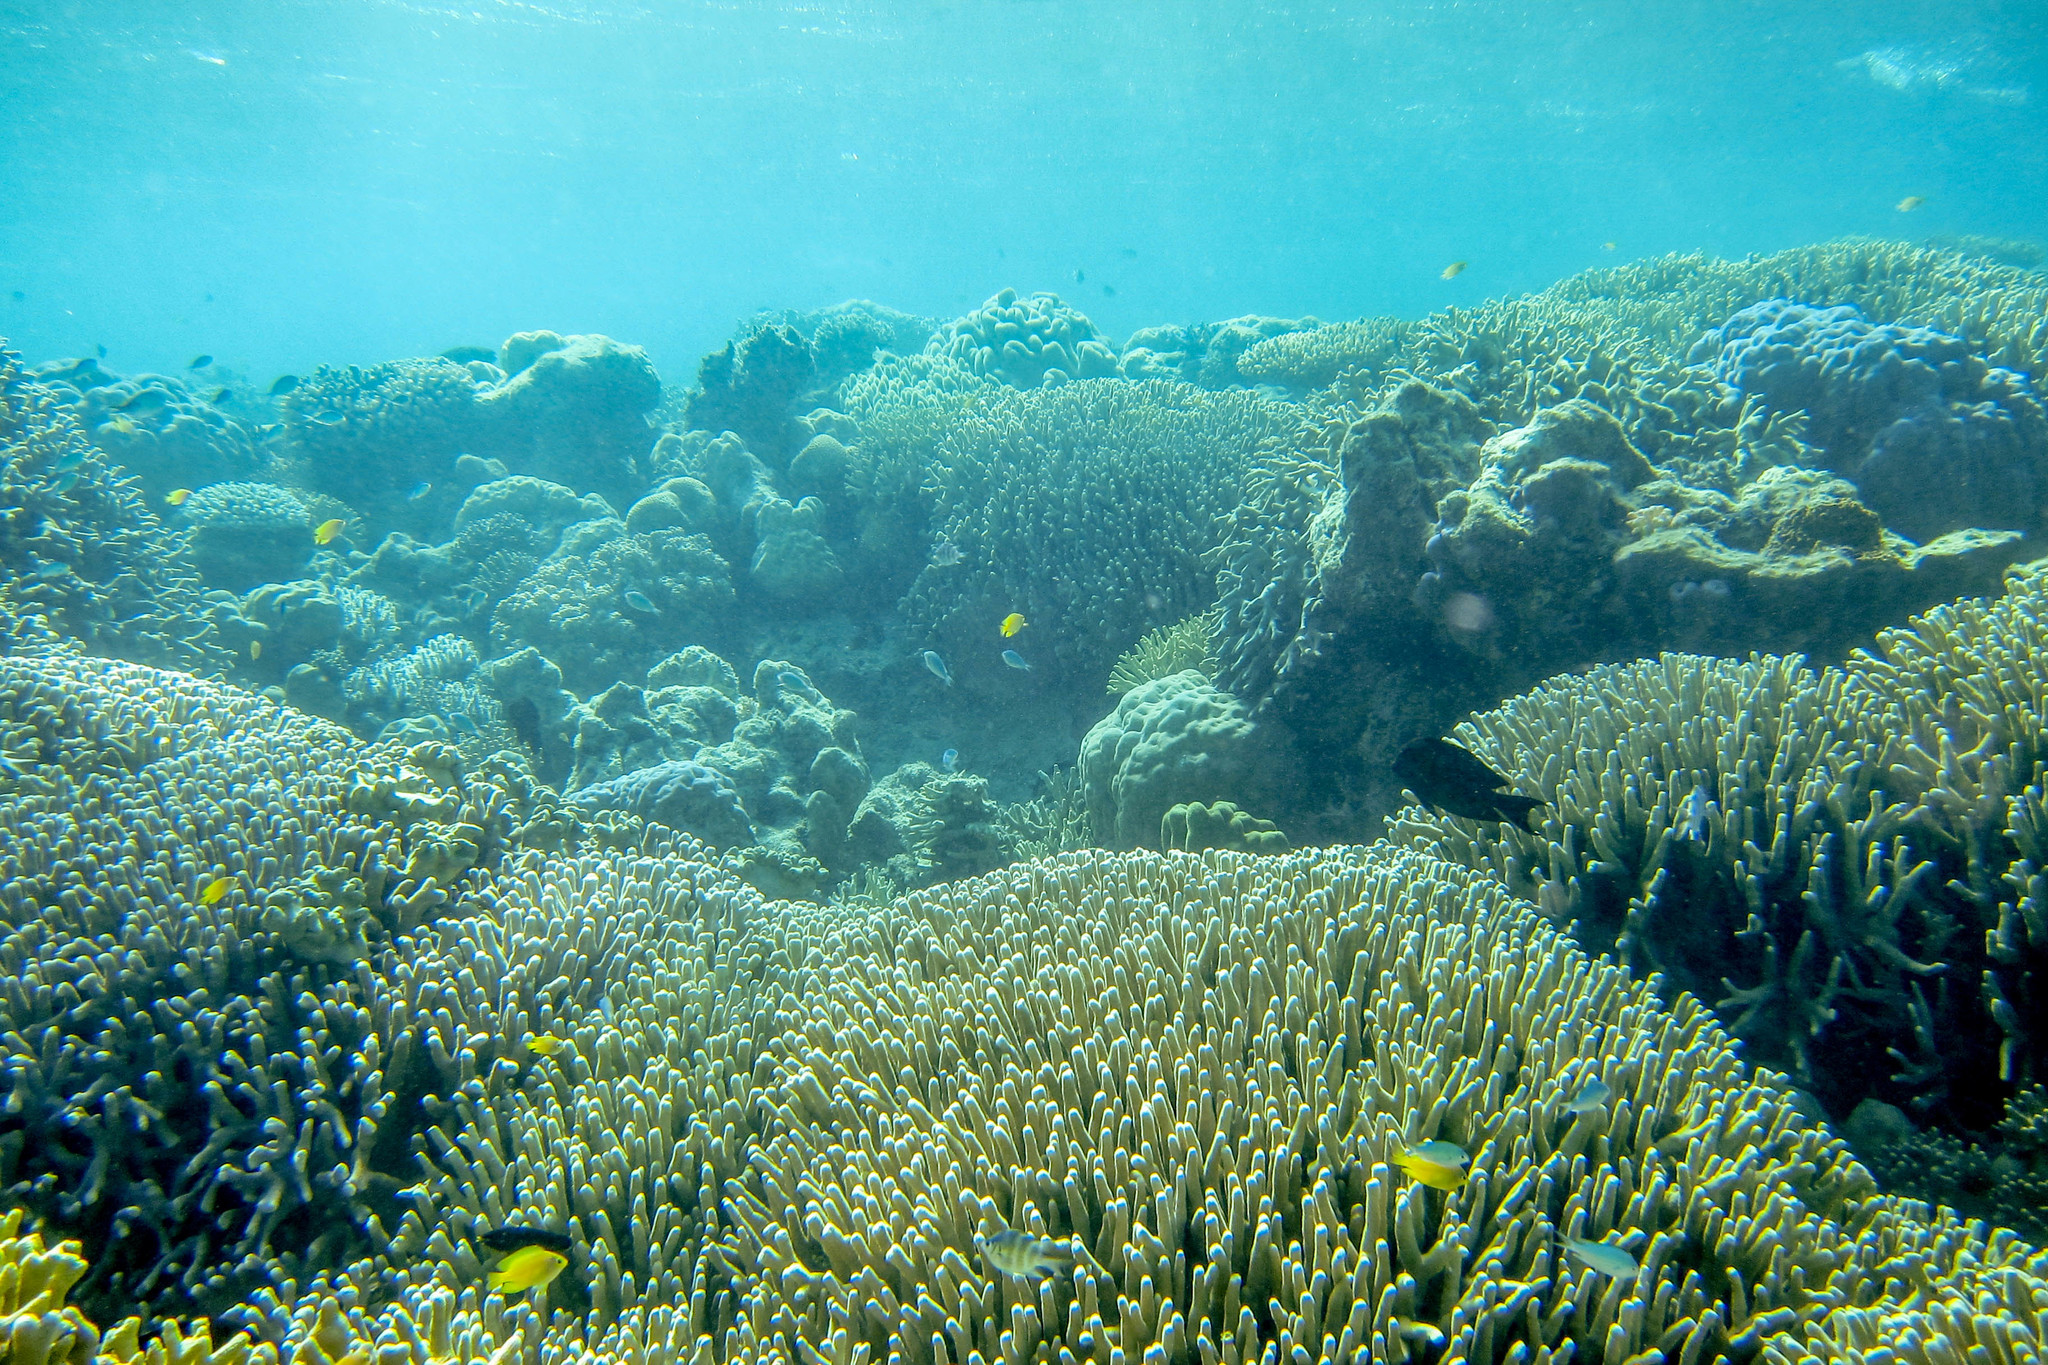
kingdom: Animalia
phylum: Chordata
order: Perciformes
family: Acanthuridae
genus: Ctenochaetus
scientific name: Ctenochaetus striatus
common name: Bristle-toothed surgeonfish
